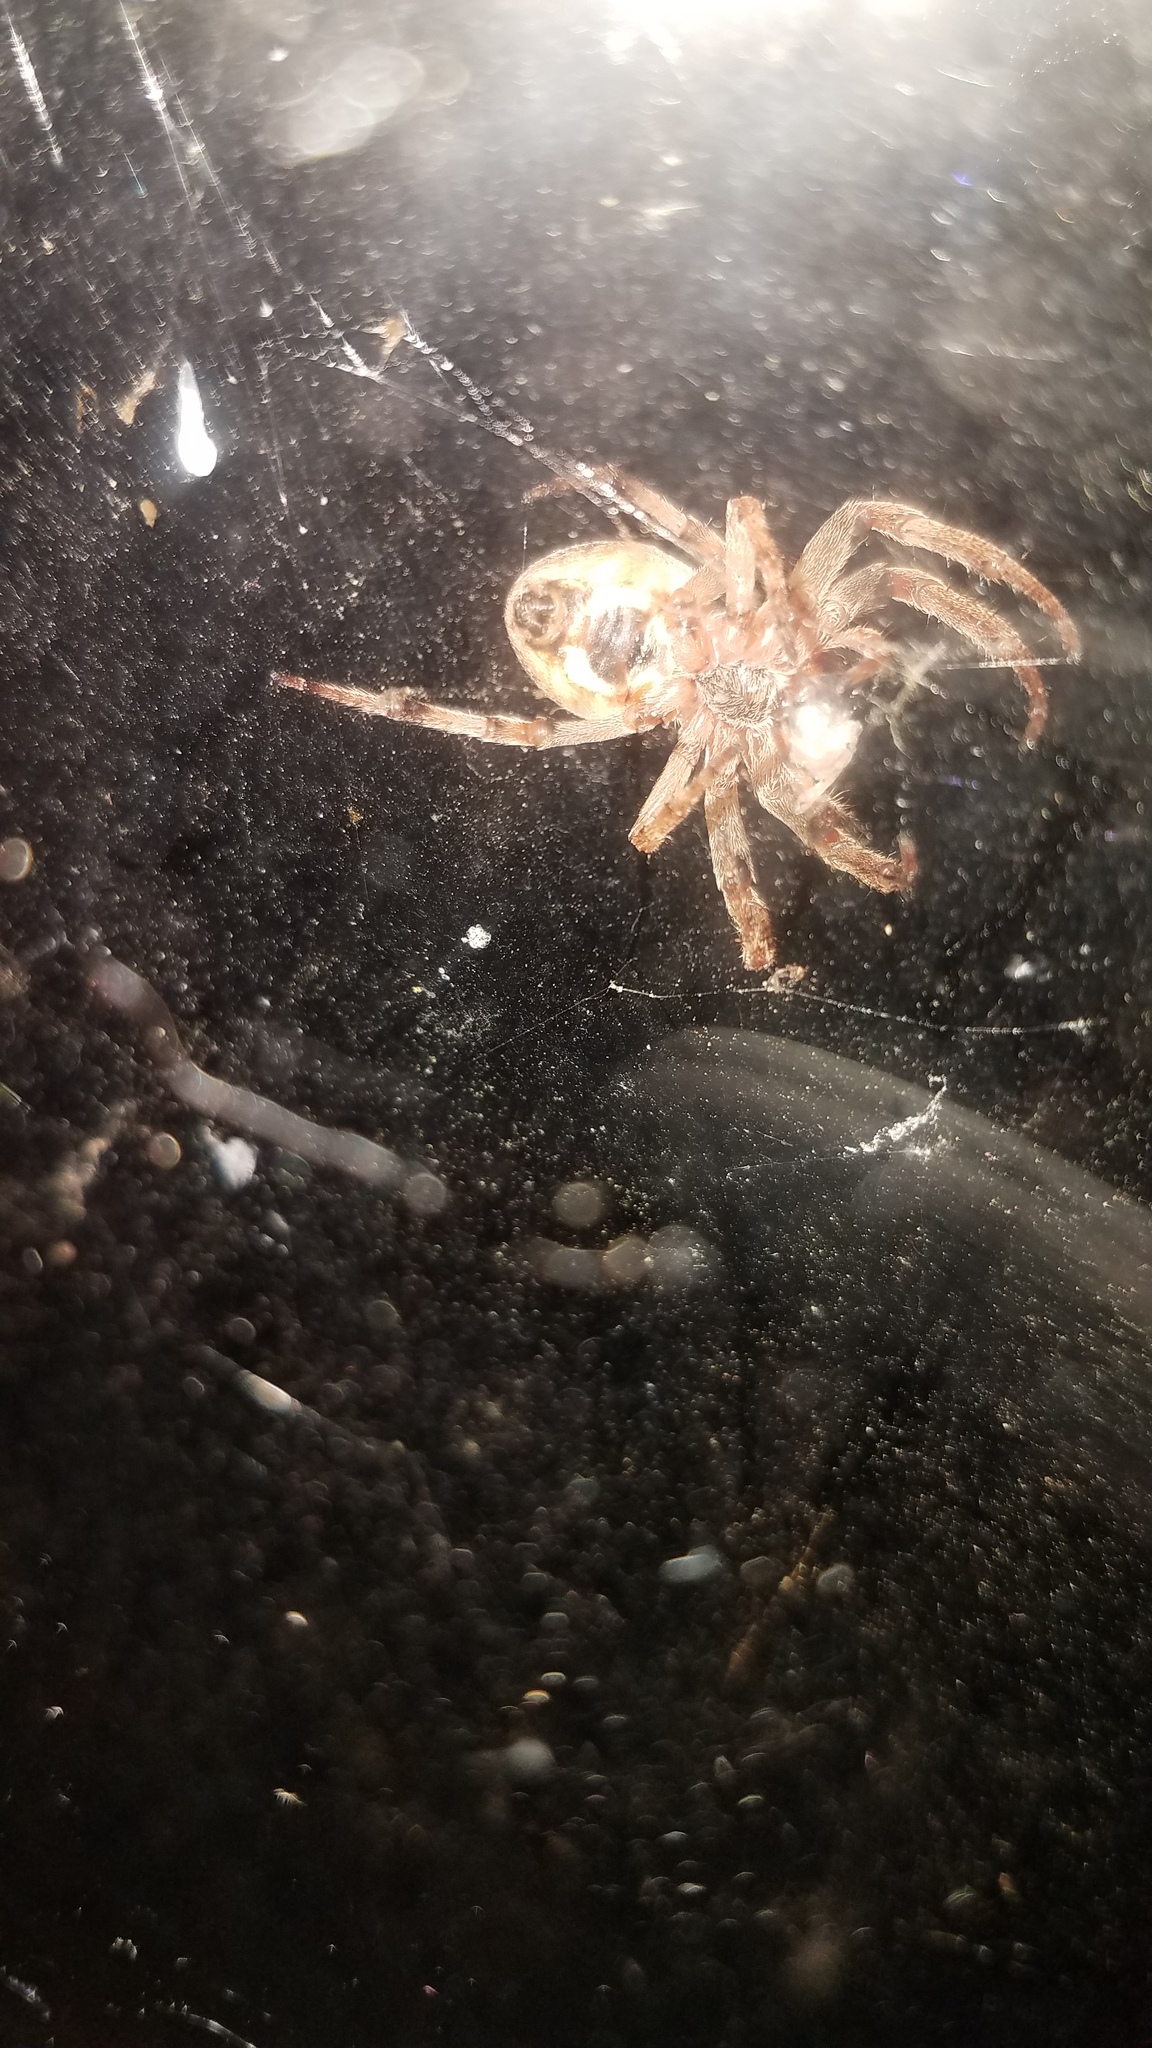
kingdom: Animalia
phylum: Arthropoda
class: Arachnida
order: Araneae
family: Araneidae
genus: Larinioides
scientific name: Larinioides cornutus
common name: Furrow orbweaver
